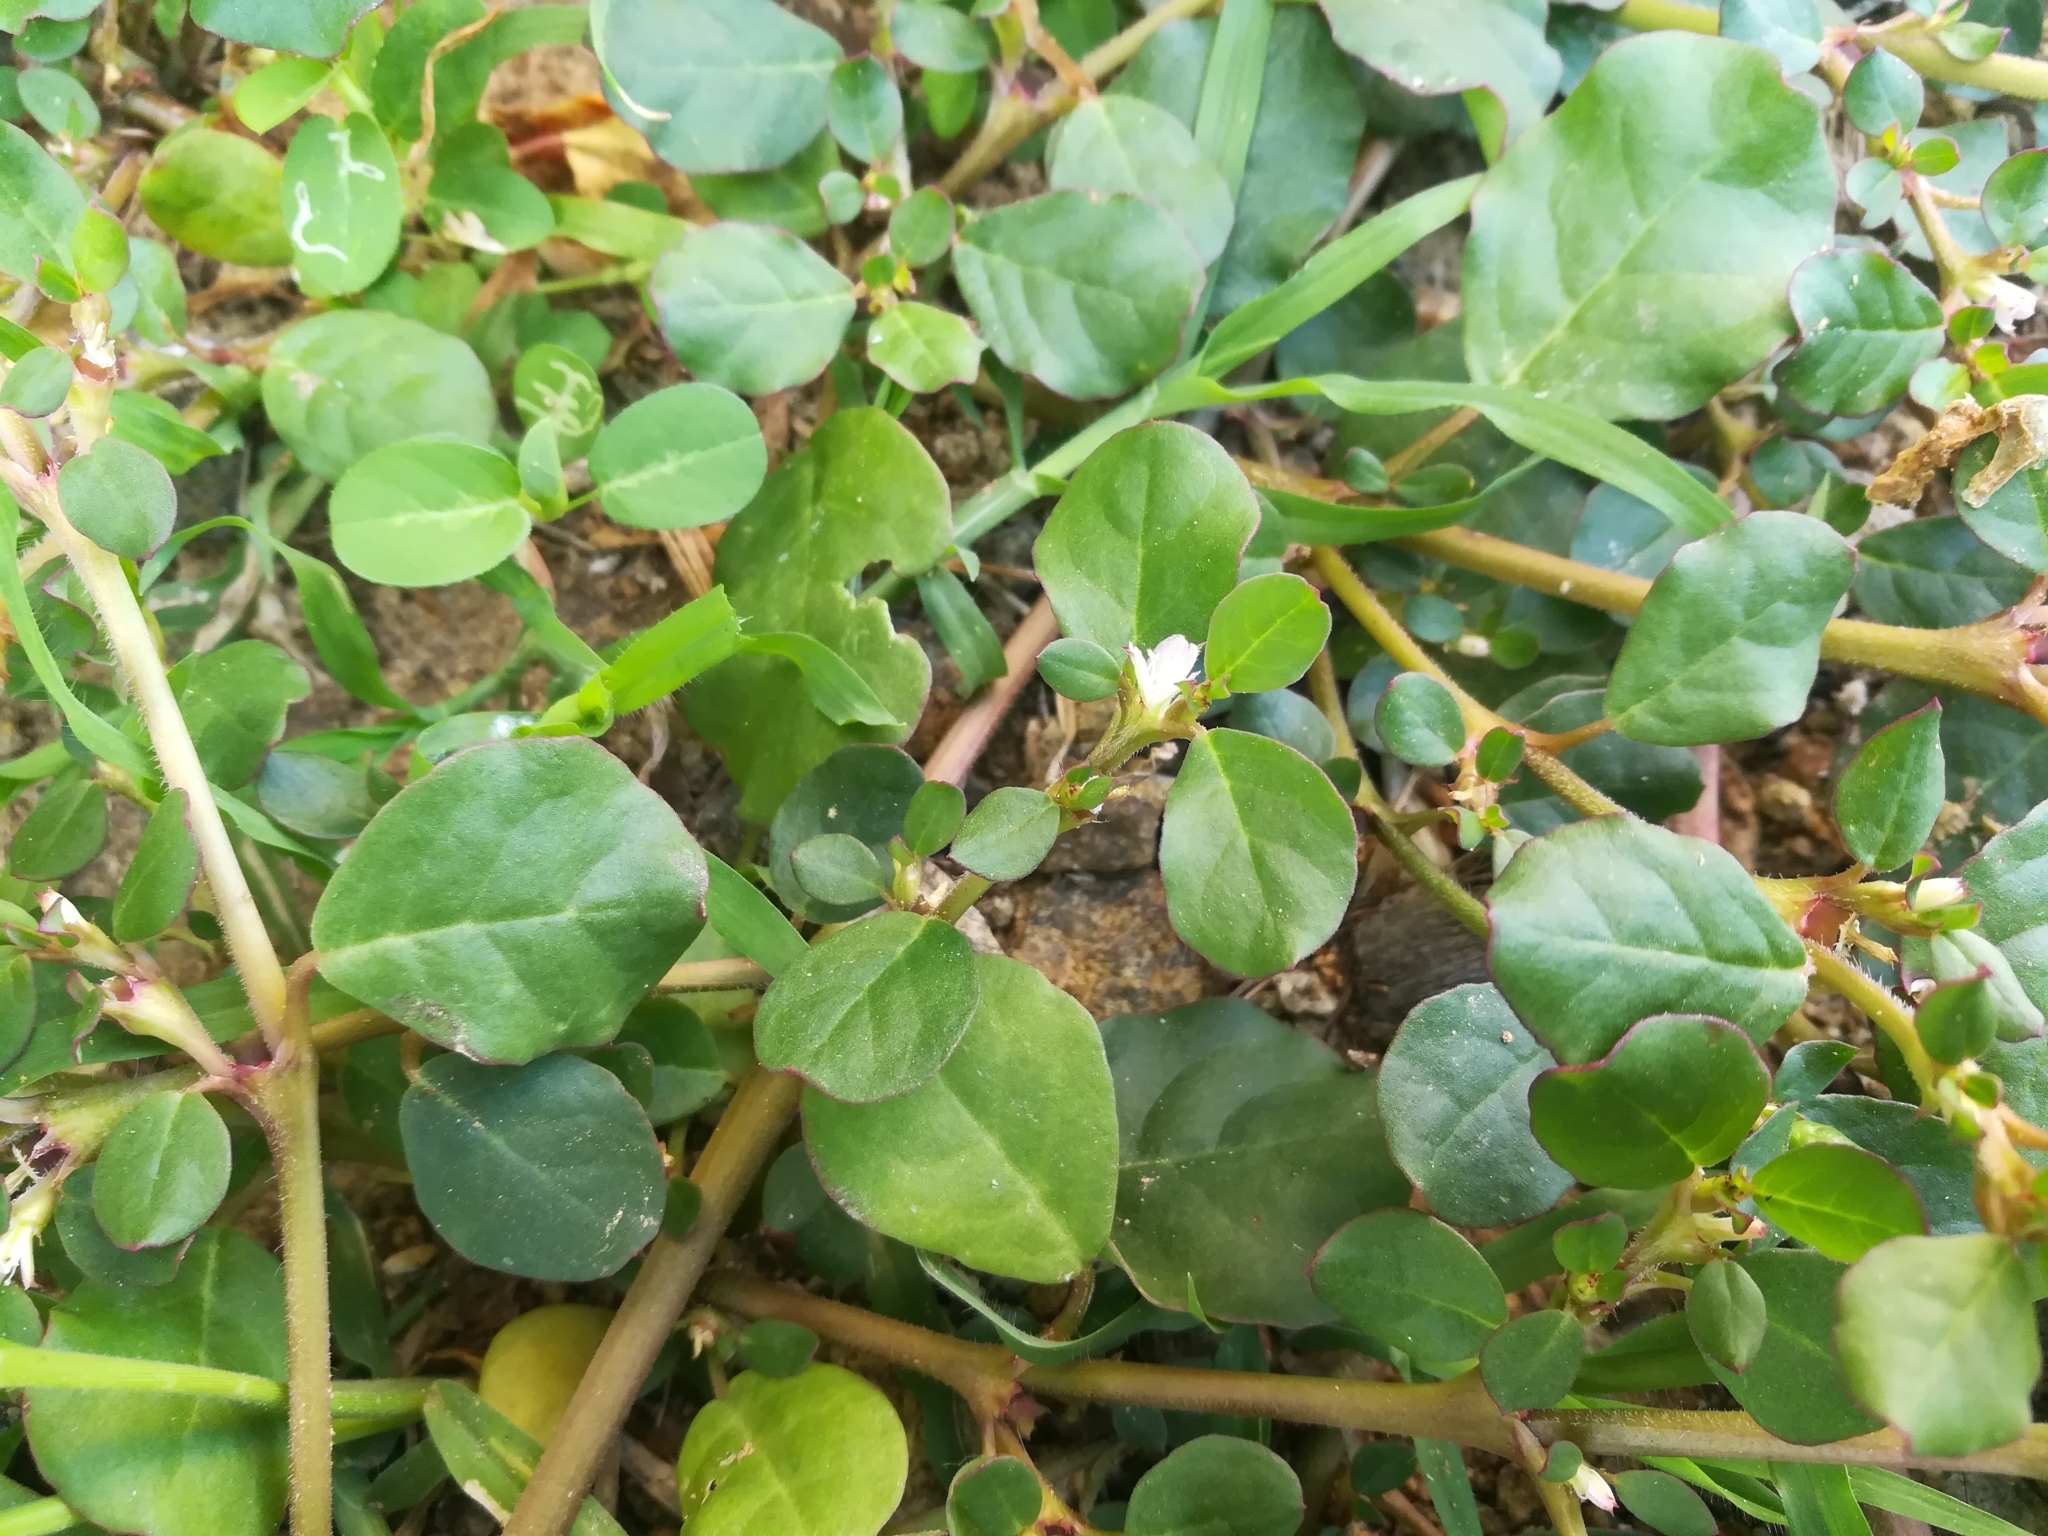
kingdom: Plantae
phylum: Tracheophyta
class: Magnoliopsida
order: Caryophyllales
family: Aizoaceae
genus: Trianthema
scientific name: Trianthema portulacastrum
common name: Desert horsepurslane
